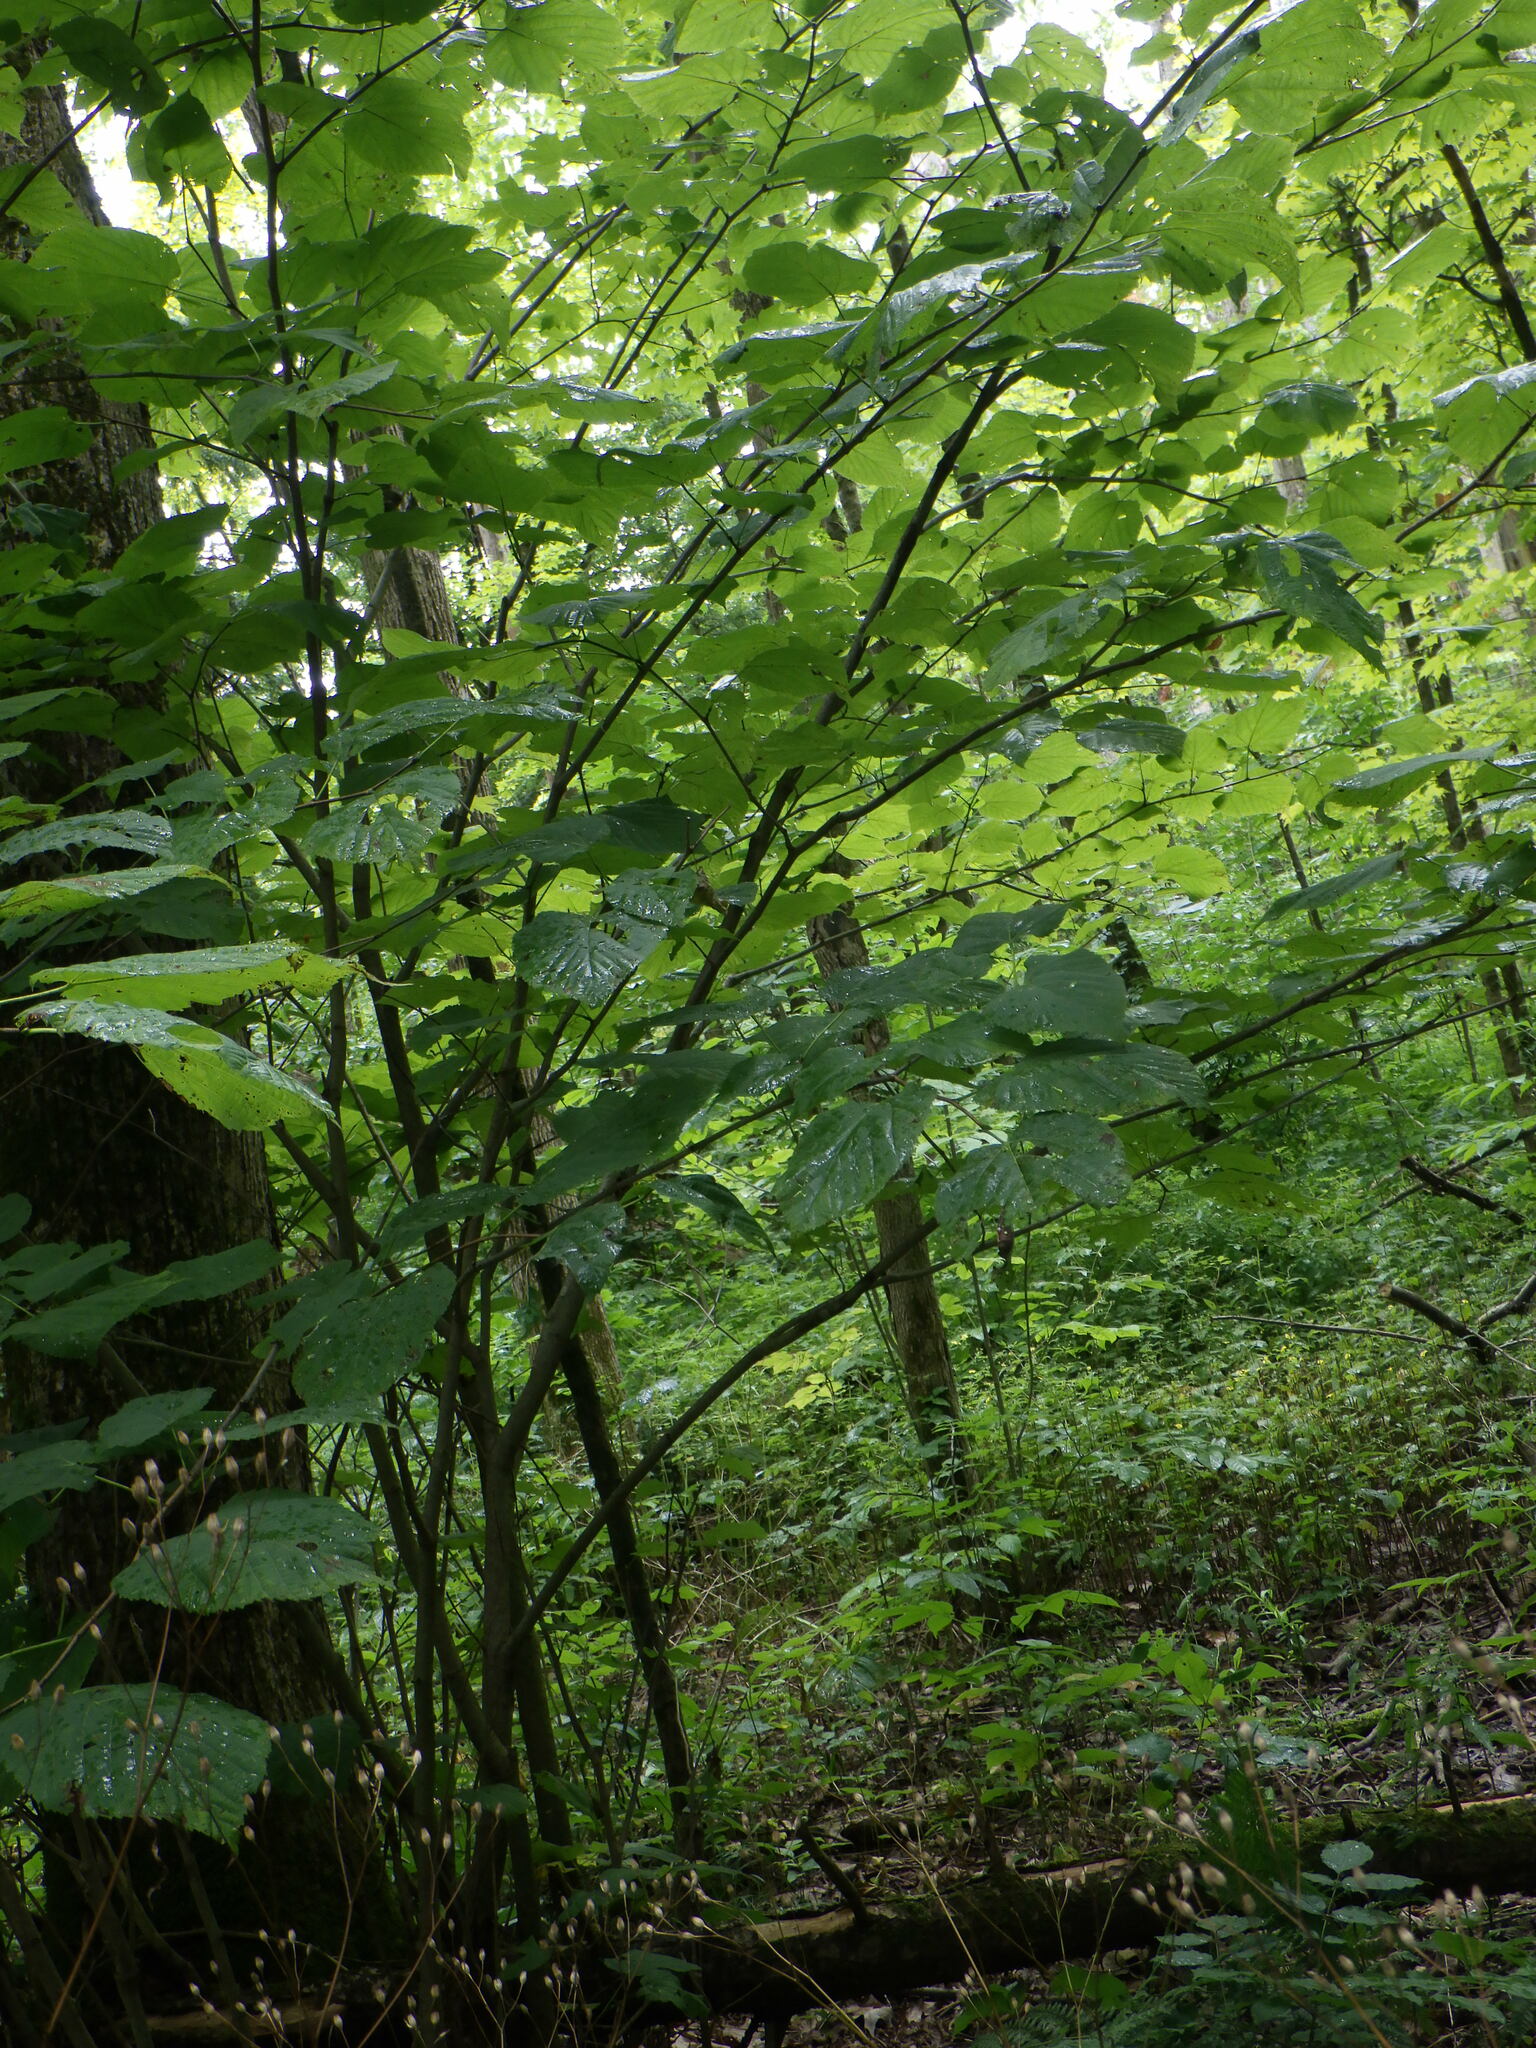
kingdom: Plantae
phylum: Tracheophyta
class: Magnoliopsida
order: Malvales
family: Malvaceae
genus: Tilia
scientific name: Tilia americana
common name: Basswood
